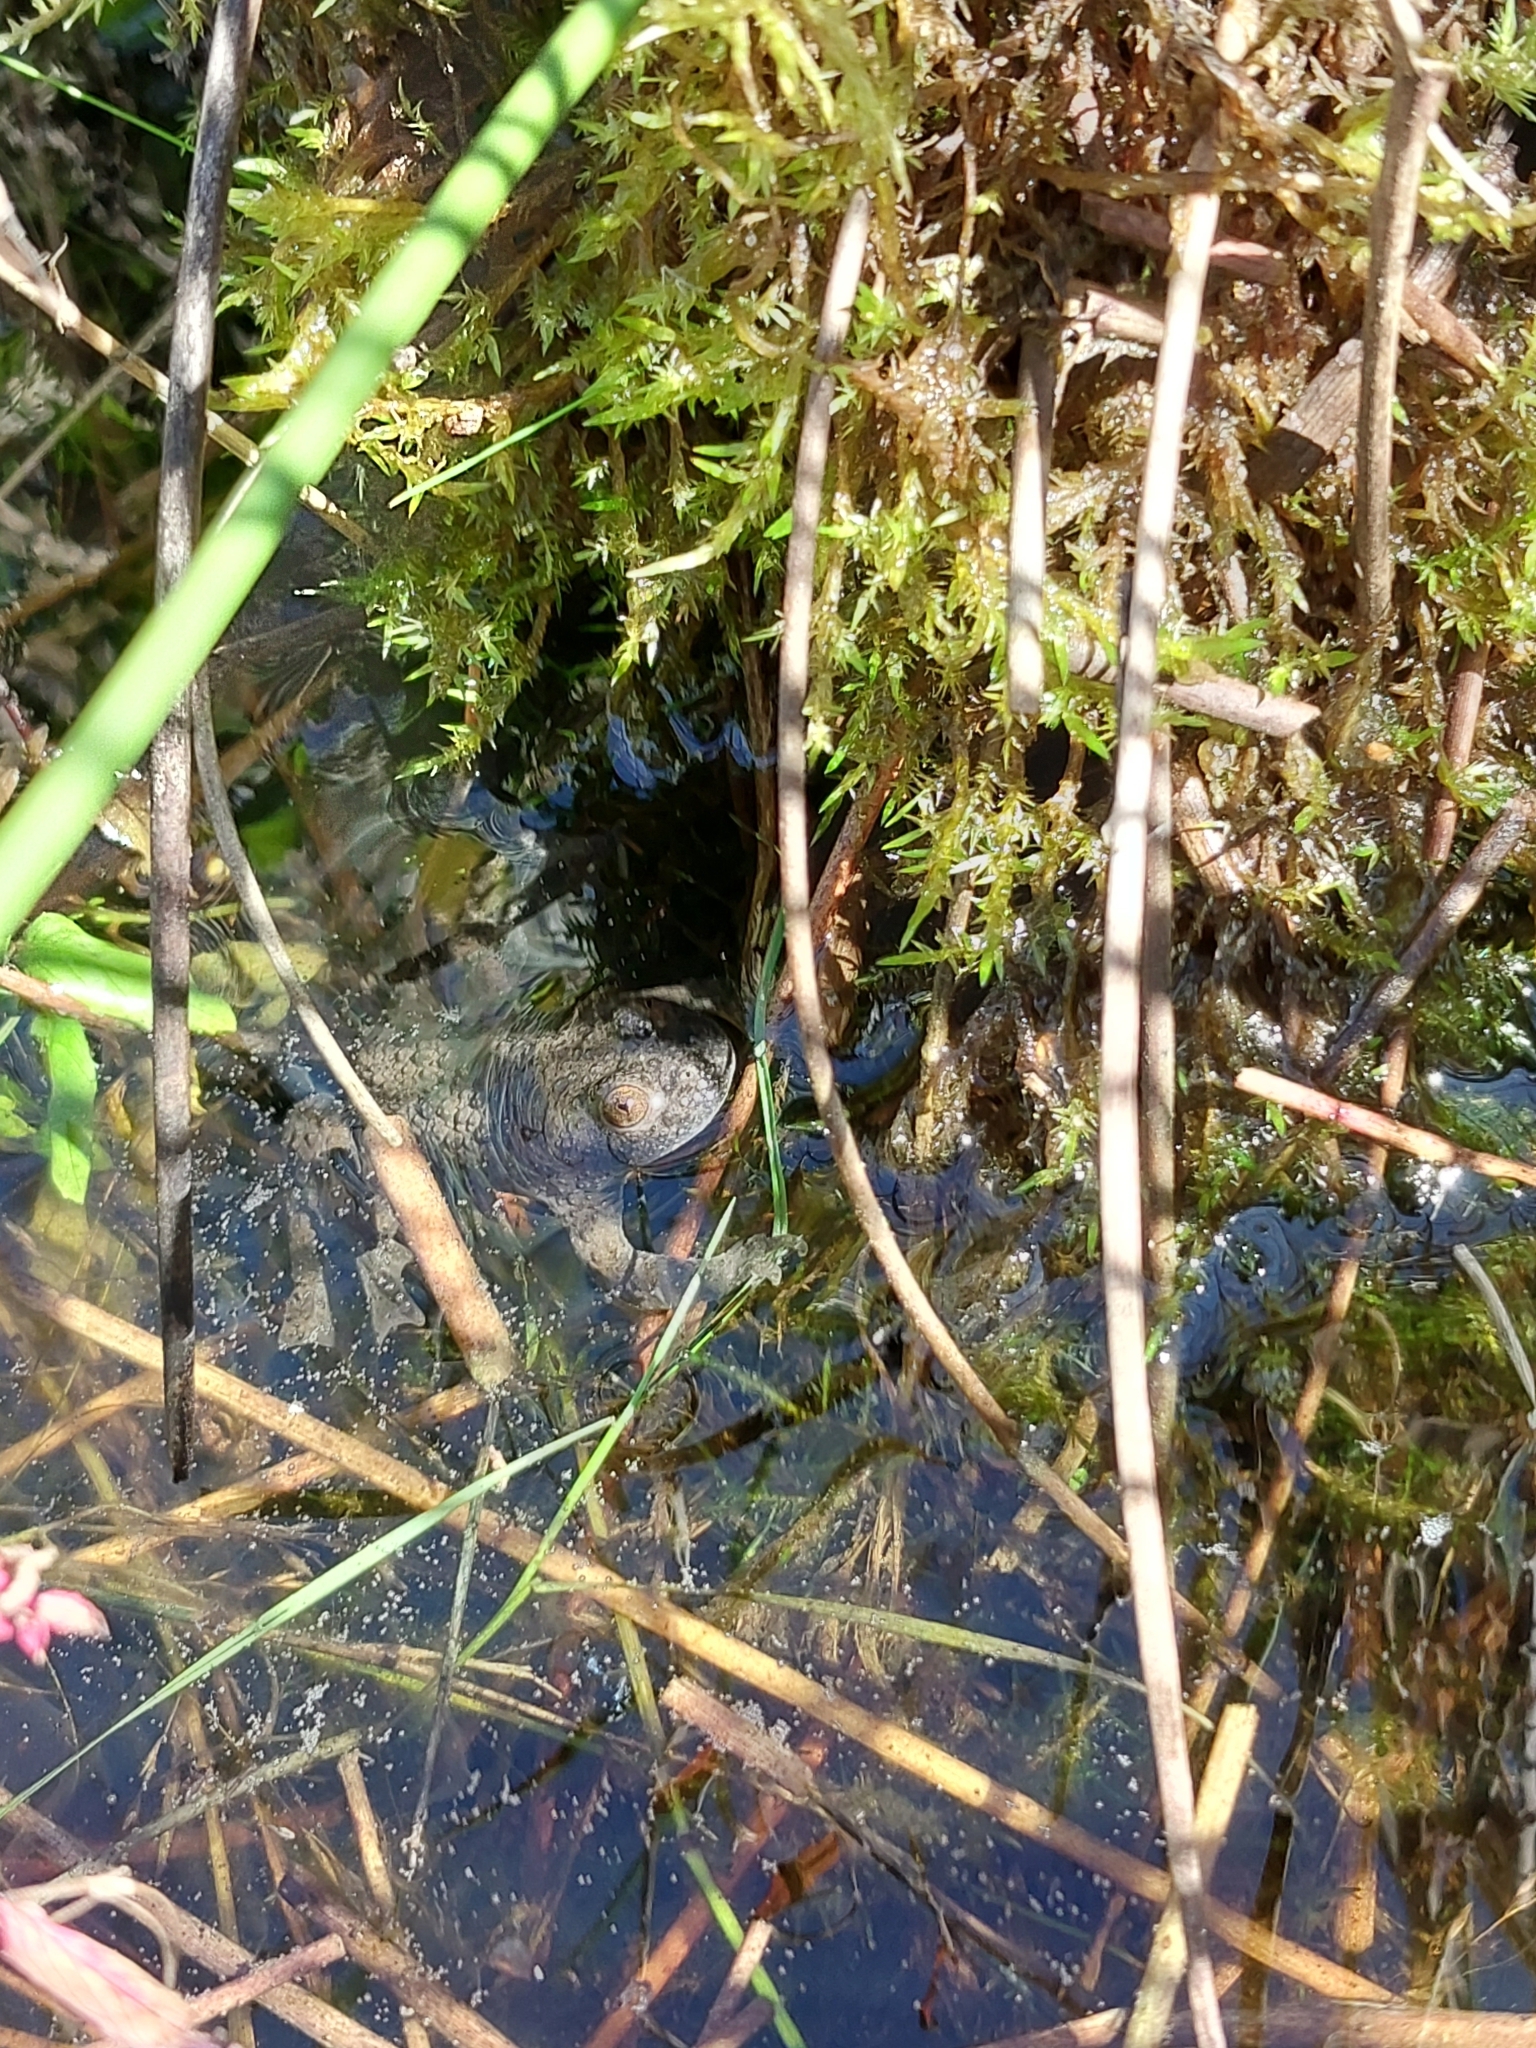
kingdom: Animalia
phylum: Chordata
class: Amphibia
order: Anura
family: Bombinatoridae
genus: Bombina
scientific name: Bombina variegata
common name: Yellow-bellied toad
